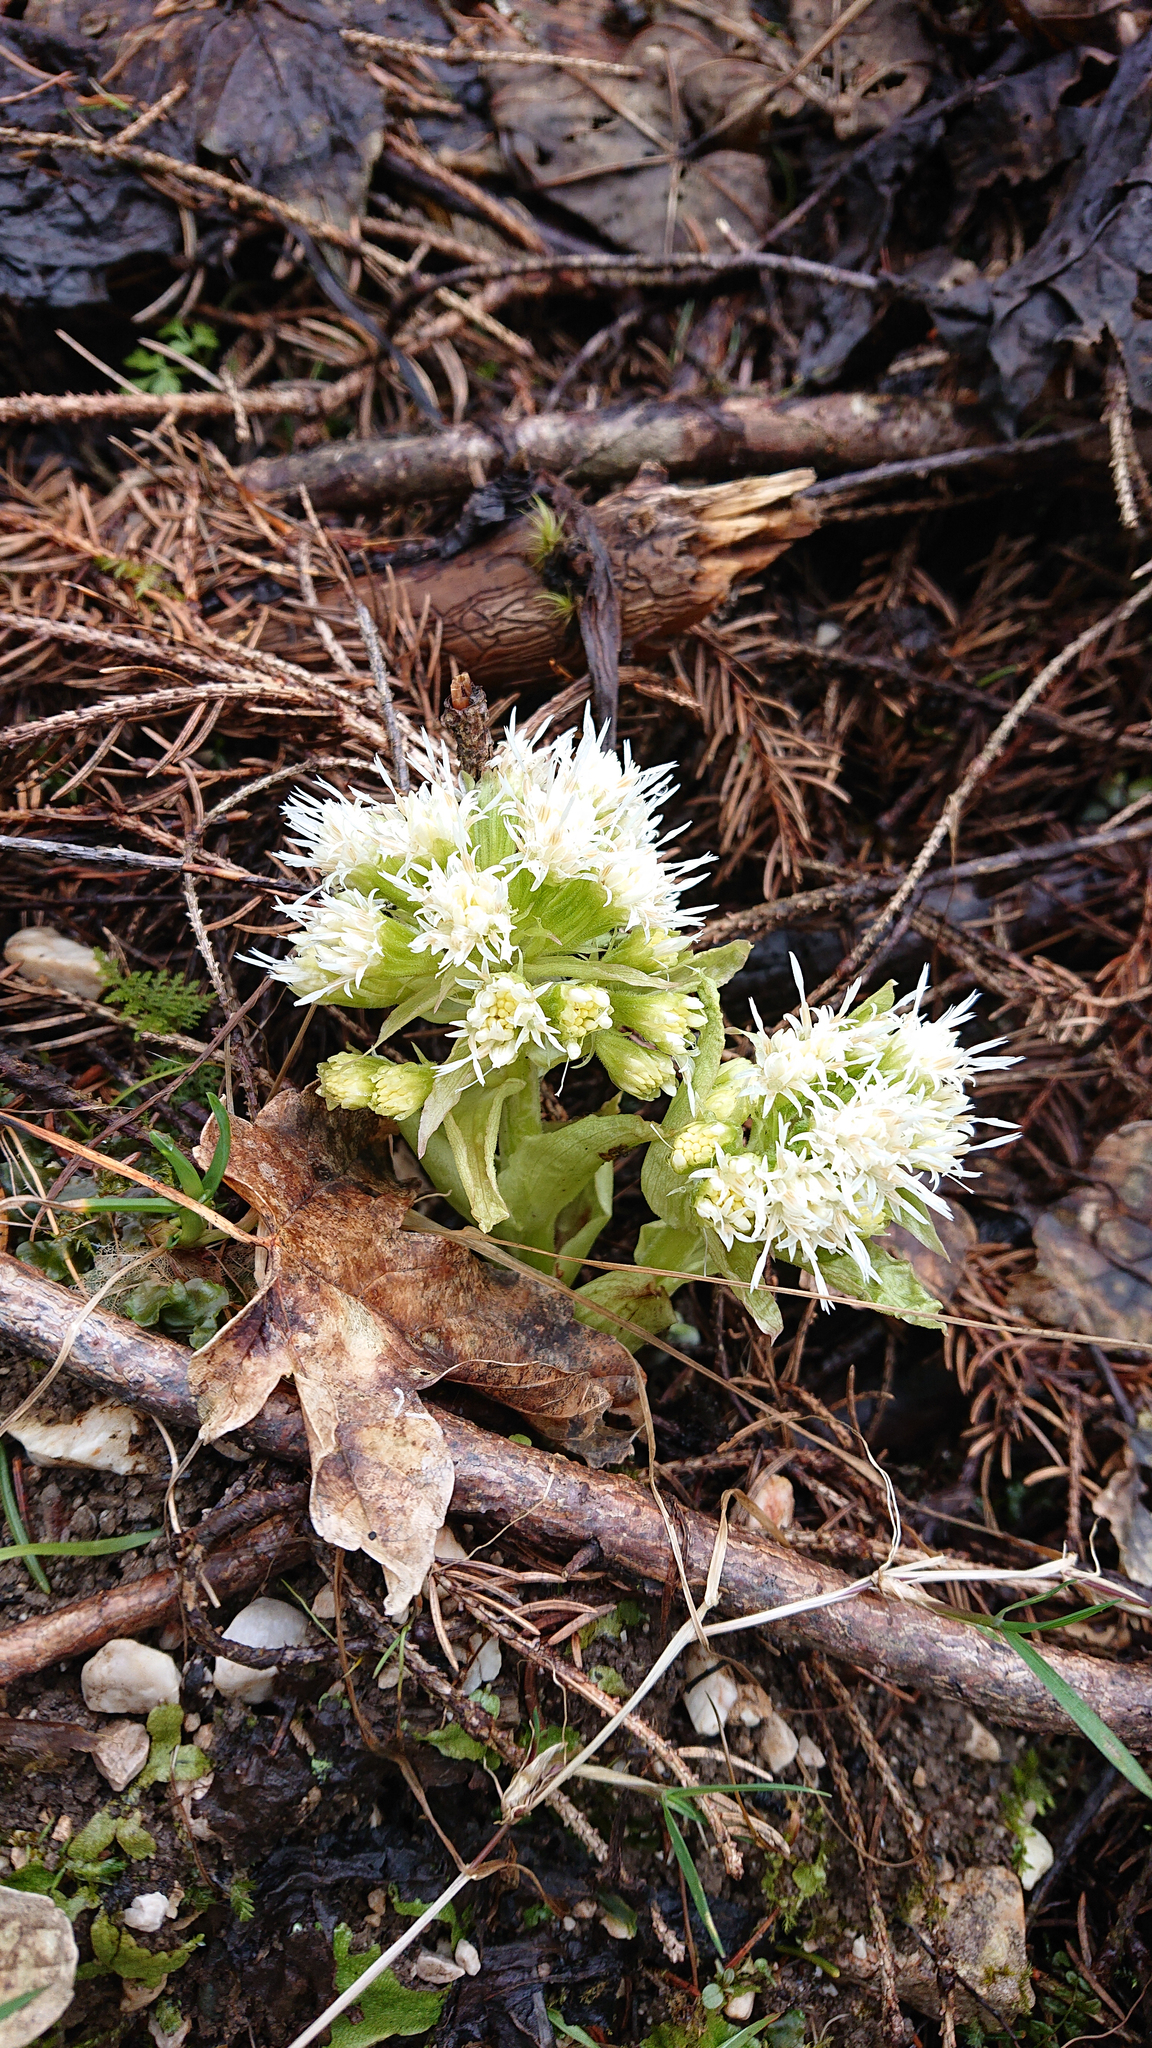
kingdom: Plantae
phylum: Tracheophyta
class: Magnoliopsida
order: Asterales
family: Asteraceae
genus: Petasites
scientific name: Petasites albus
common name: White butterbur
